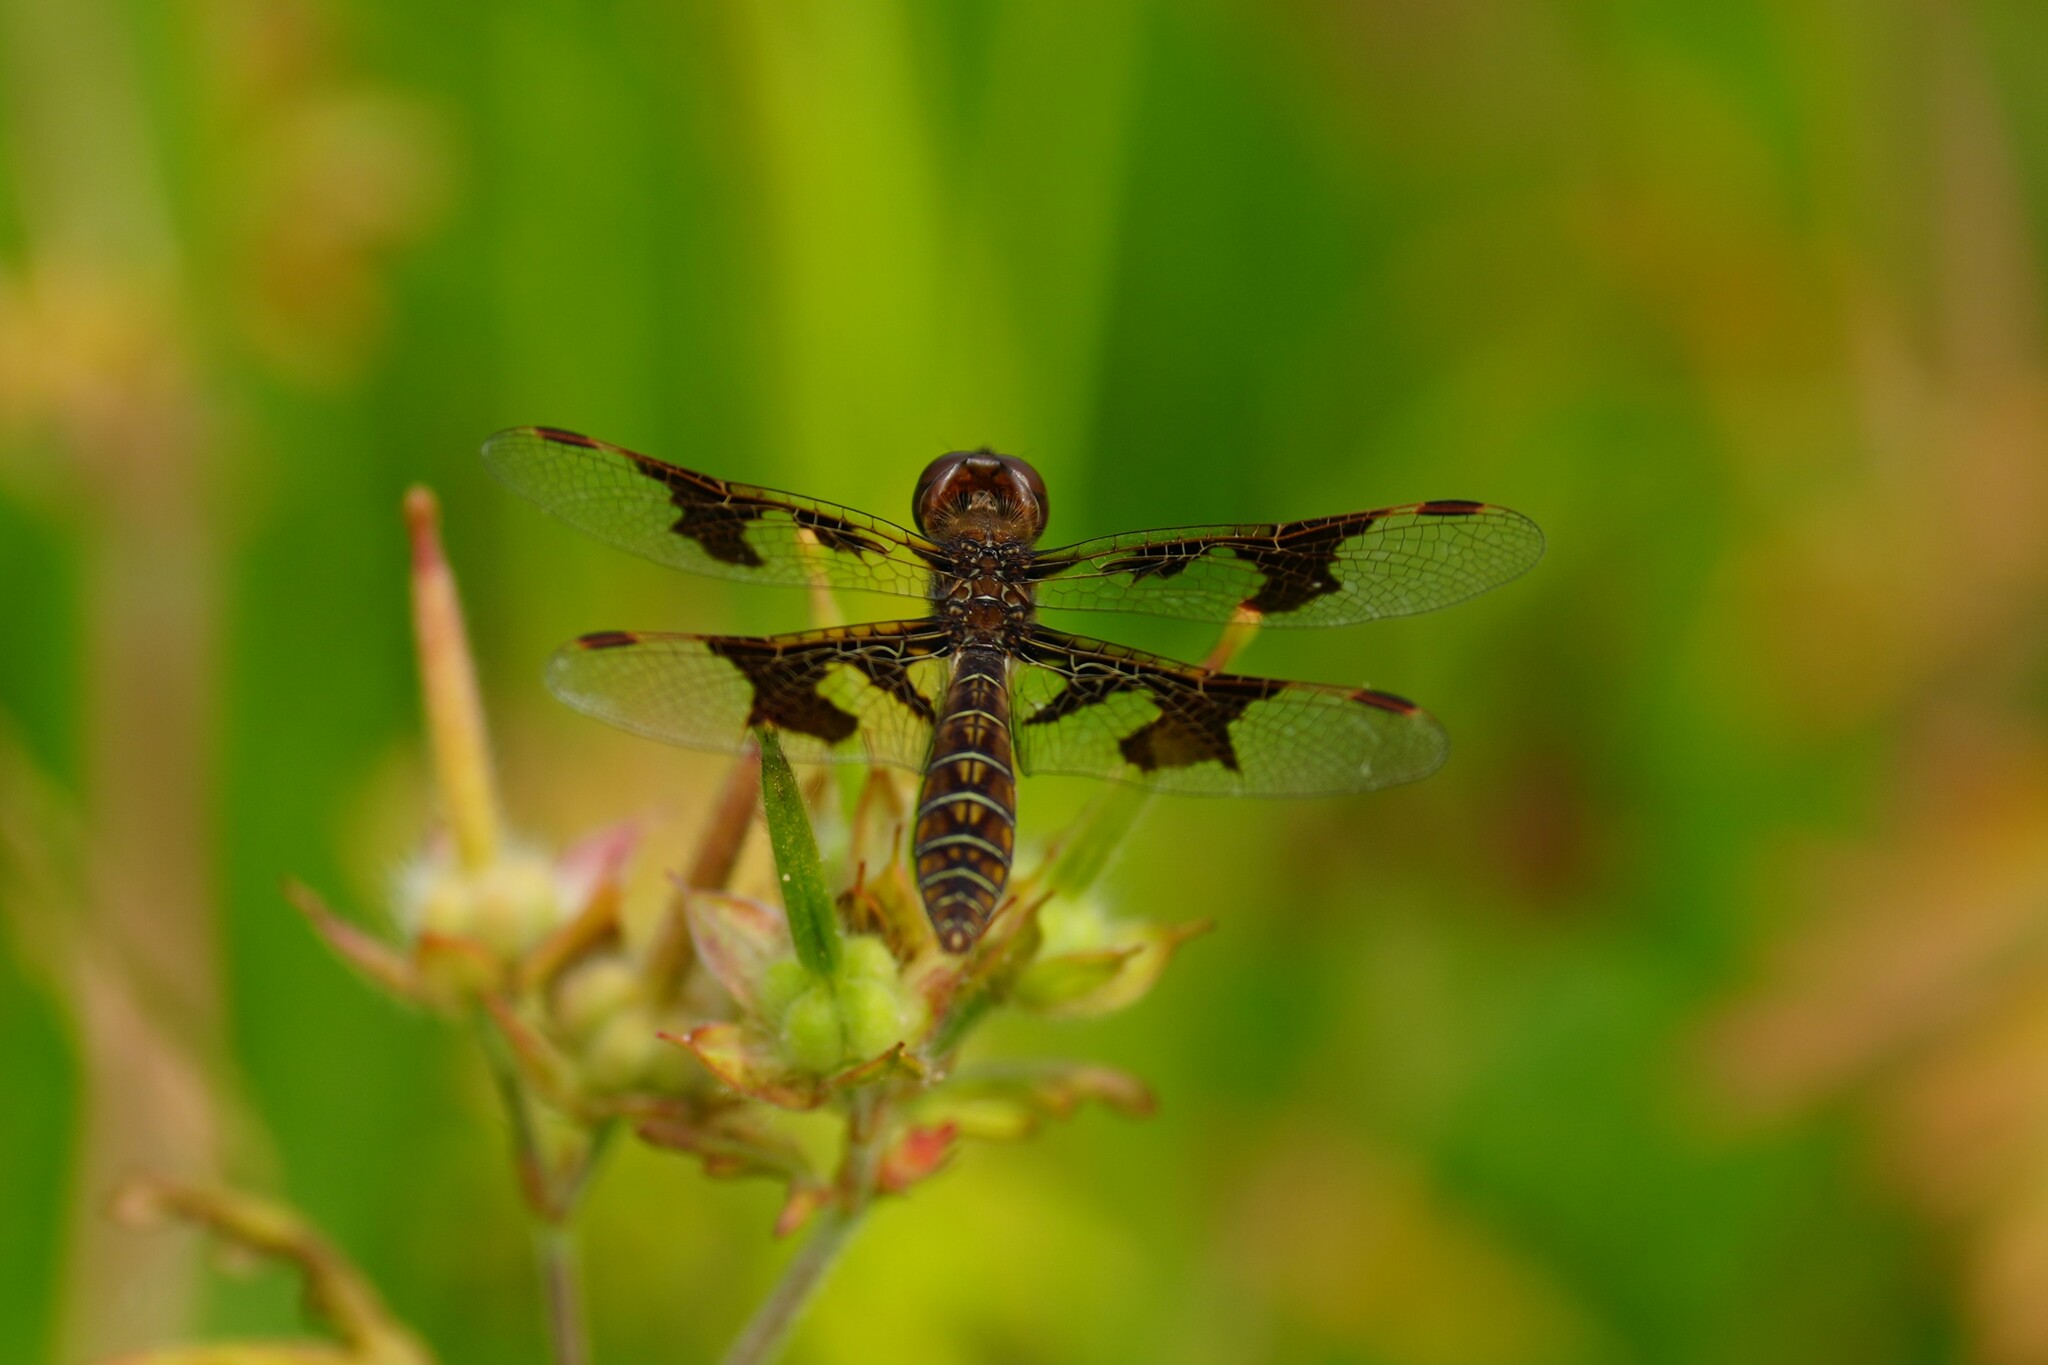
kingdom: Animalia
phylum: Arthropoda
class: Insecta
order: Odonata
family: Libellulidae
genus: Perithemis
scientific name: Perithemis tenera
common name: Eastern amberwing
